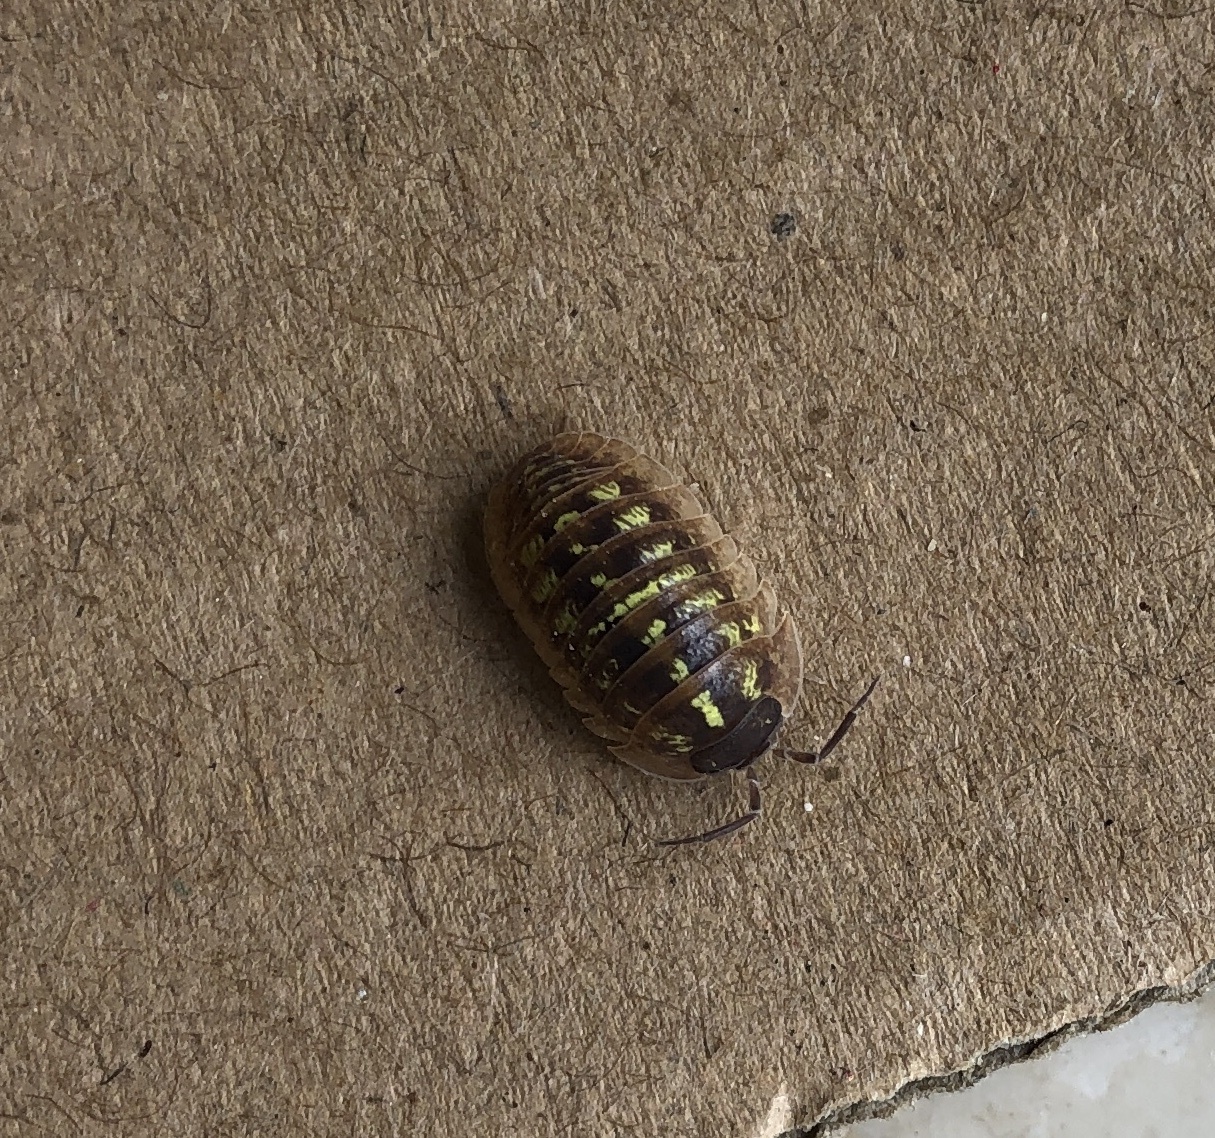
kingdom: Animalia
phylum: Arthropoda
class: Malacostraca
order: Isopoda
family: Armadillidiidae
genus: Armadillidium
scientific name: Armadillidium depressum
